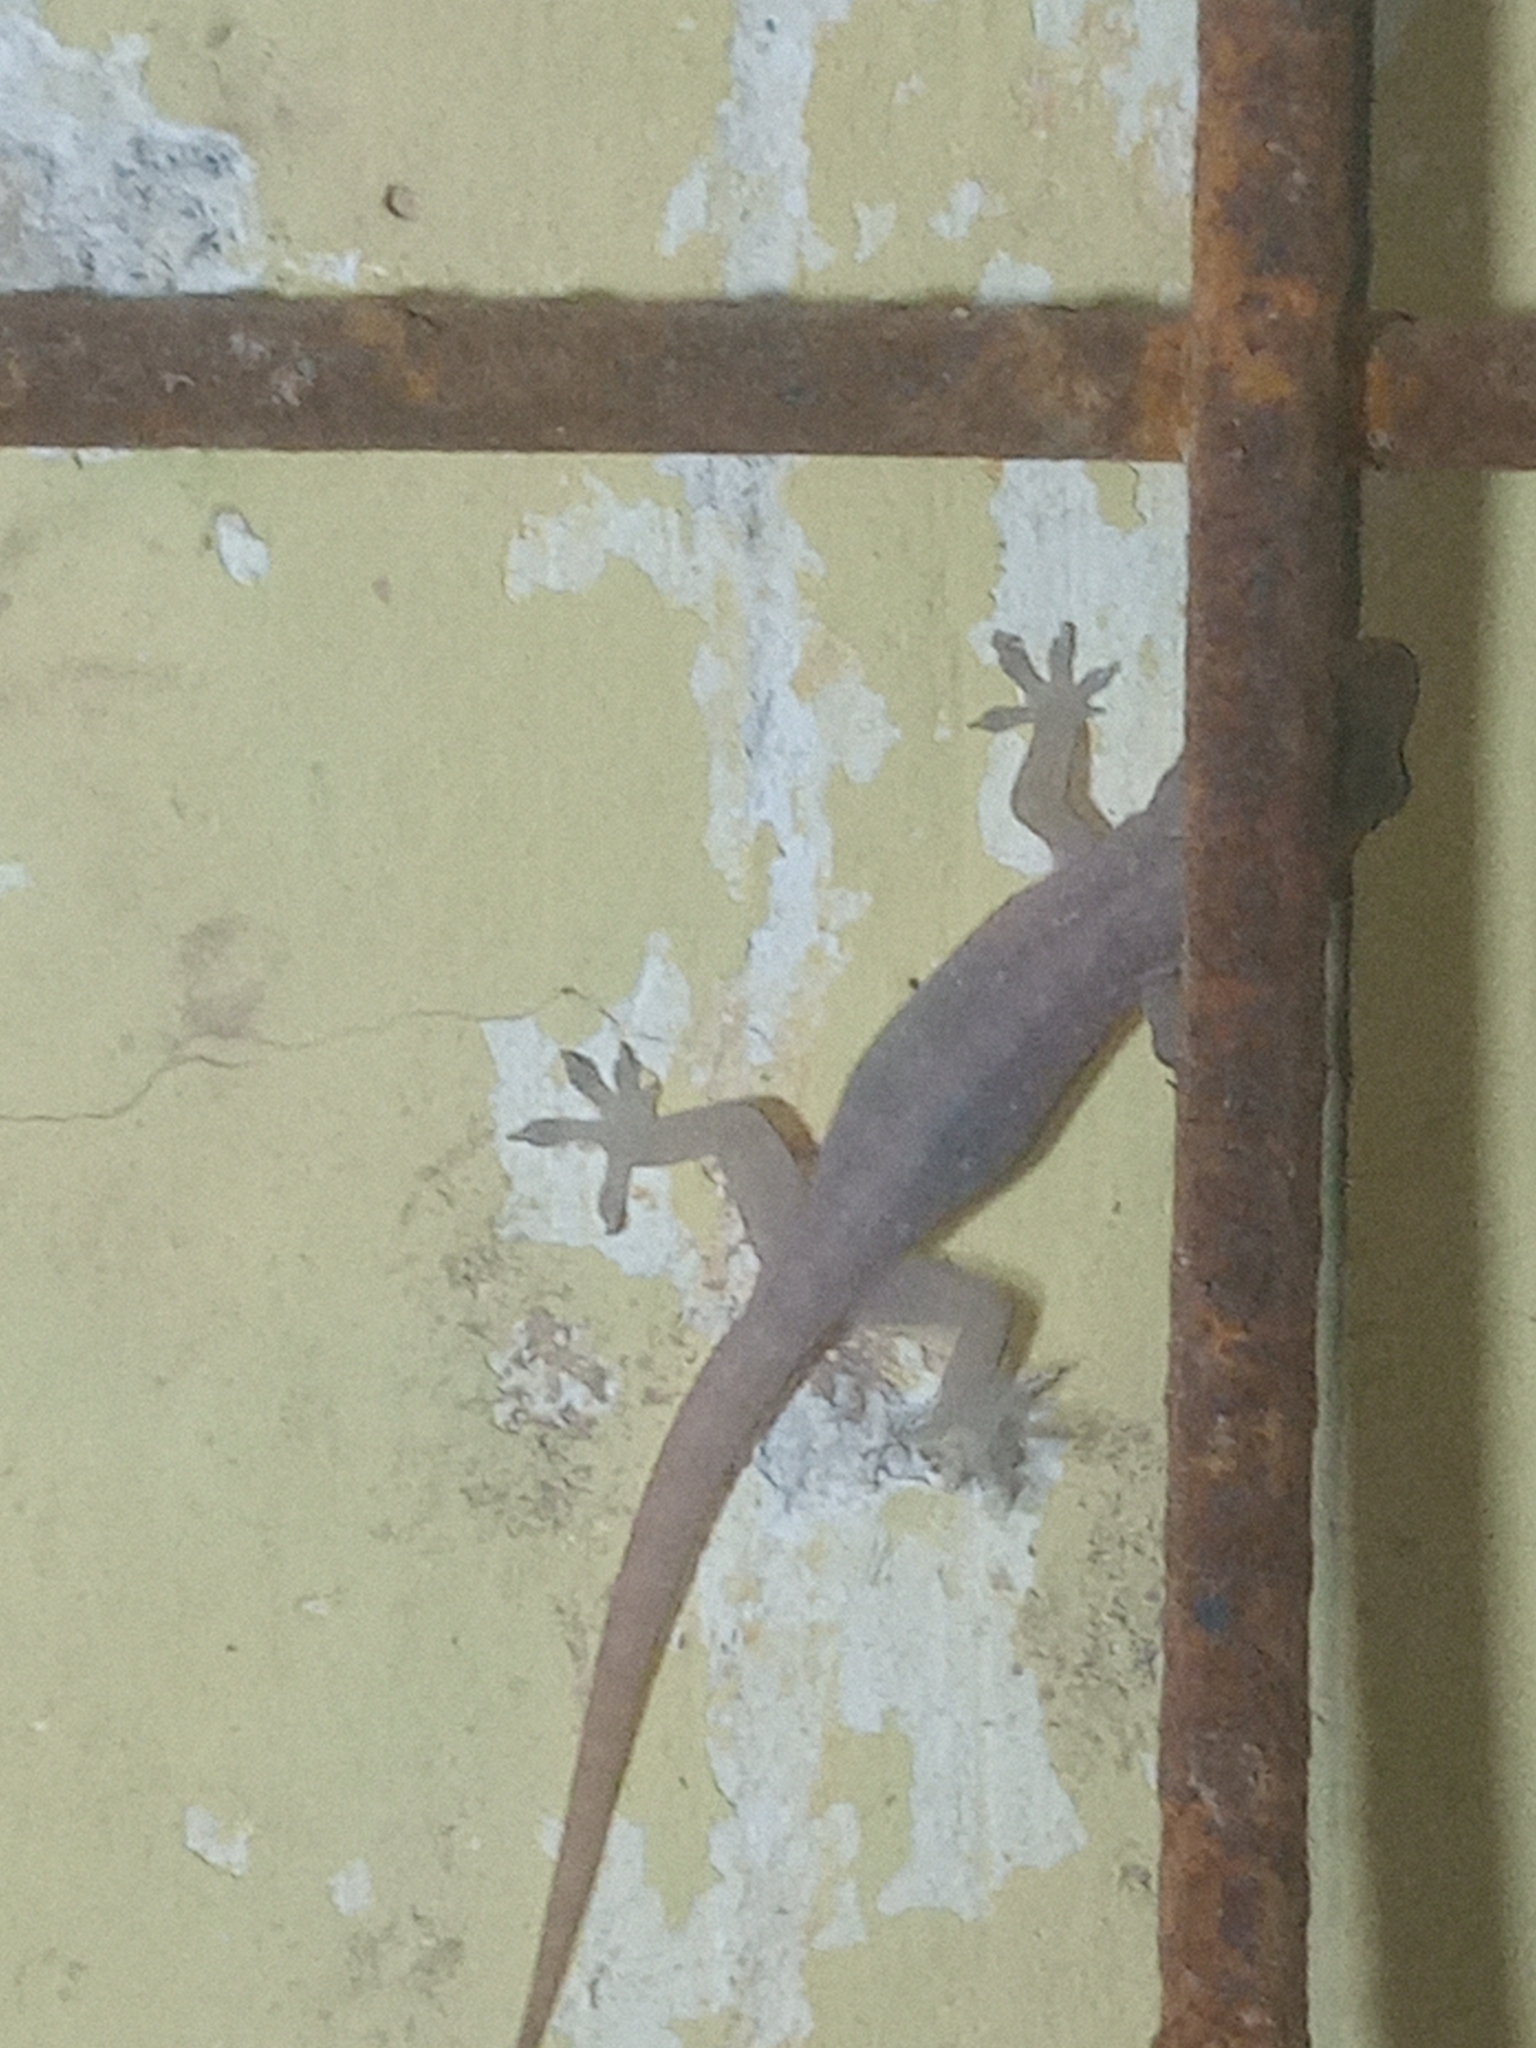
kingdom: Animalia
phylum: Chordata
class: Squamata
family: Gekkonidae
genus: Hemidactylus
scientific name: Hemidactylus frenatus
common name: Common house gecko
